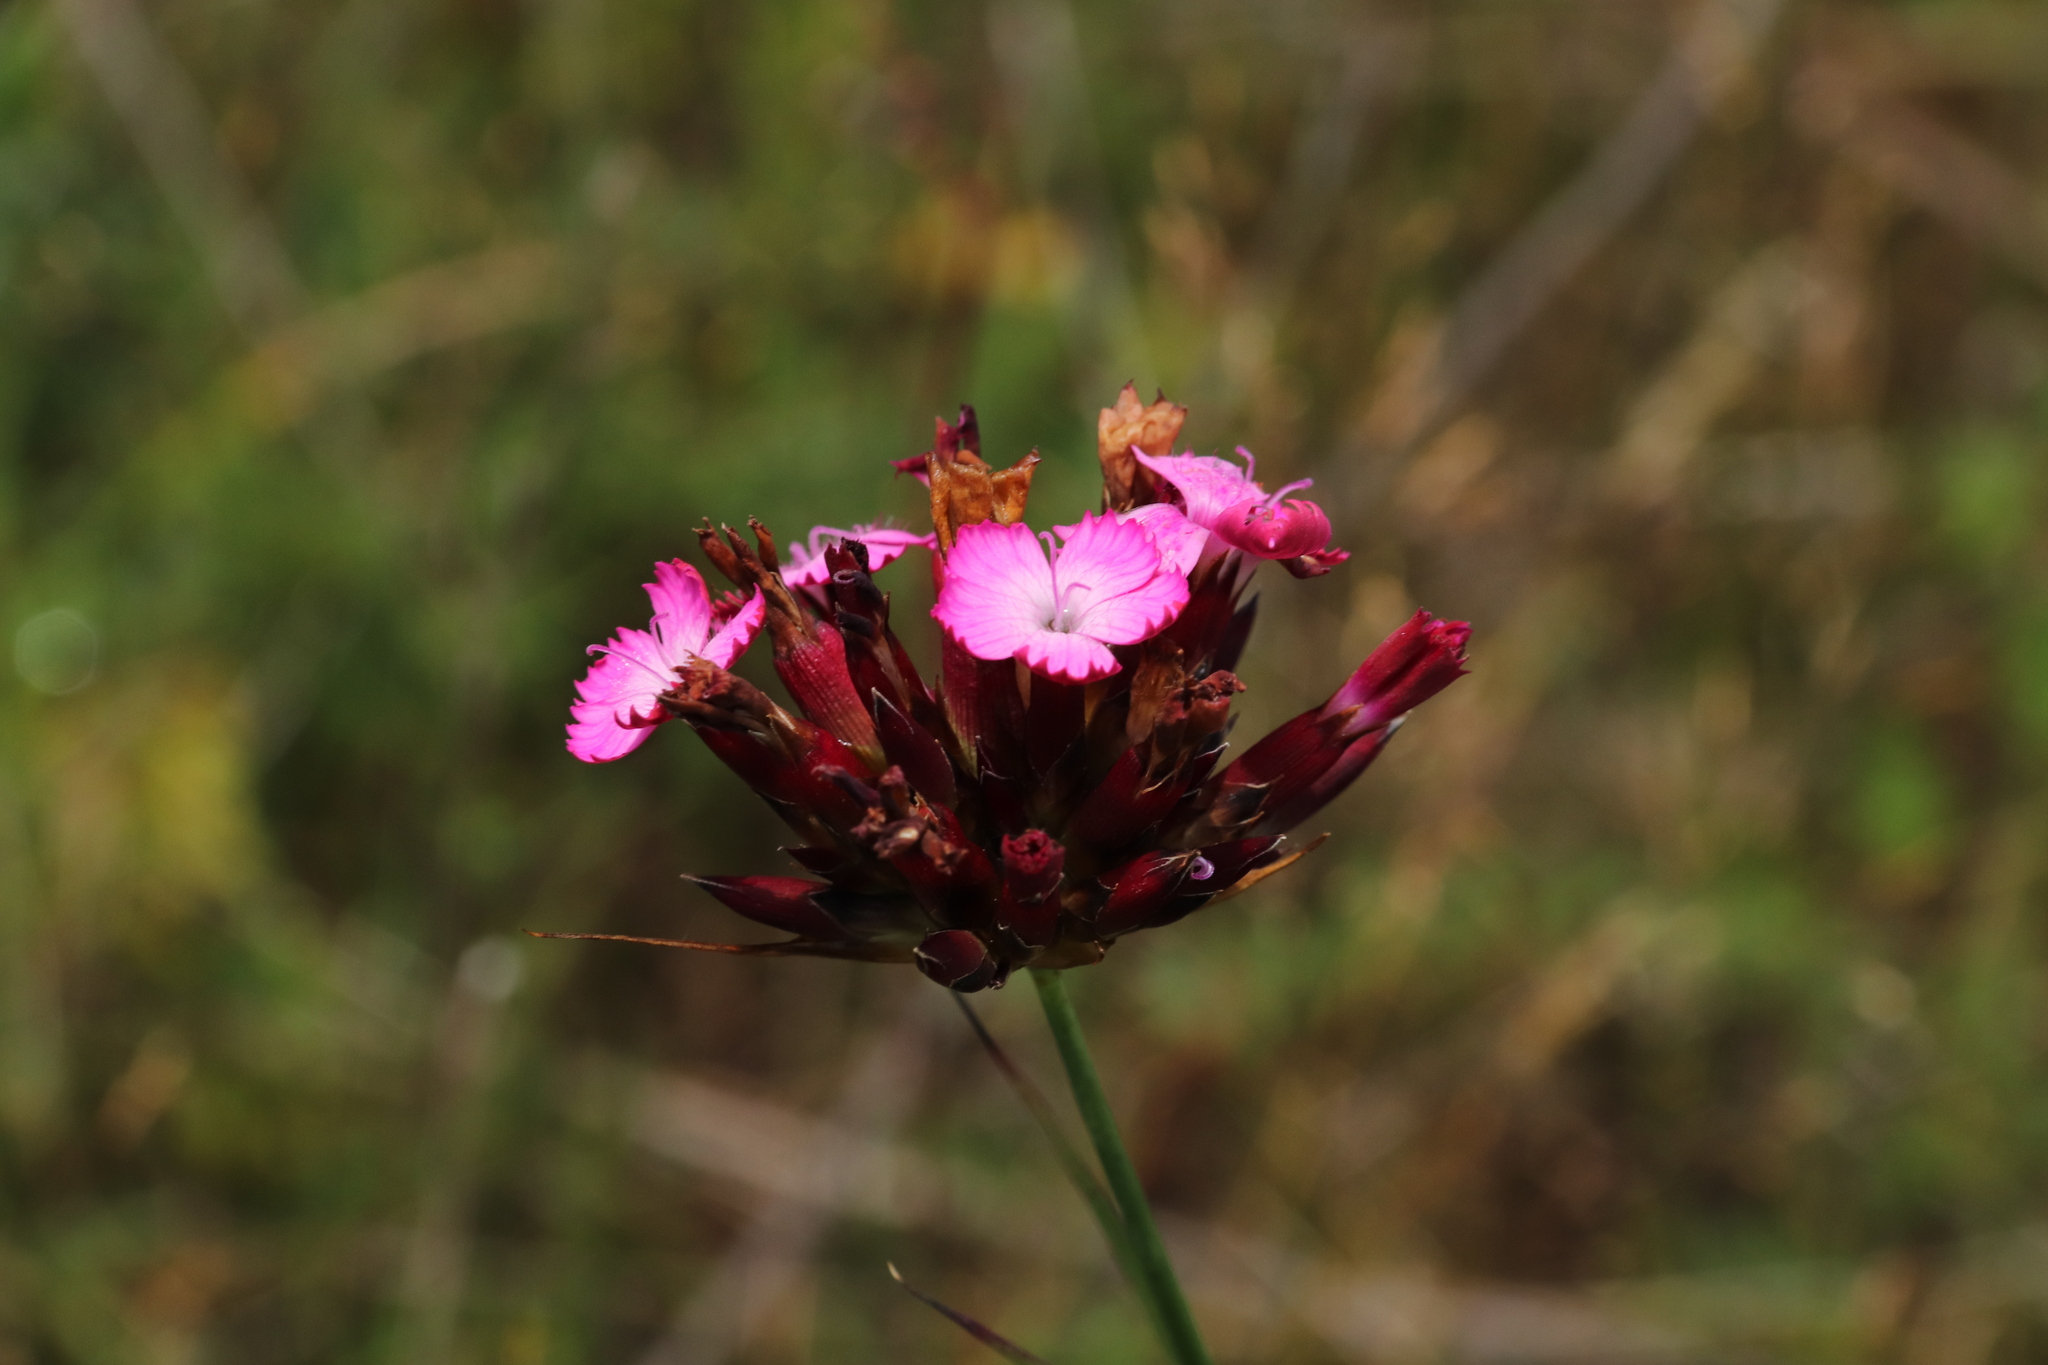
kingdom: Plantae
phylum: Tracheophyta
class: Magnoliopsida
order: Caryophyllales
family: Caryophyllaceae
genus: Dianthus
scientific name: Dianthus carthusianorum
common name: Carthusian pink
